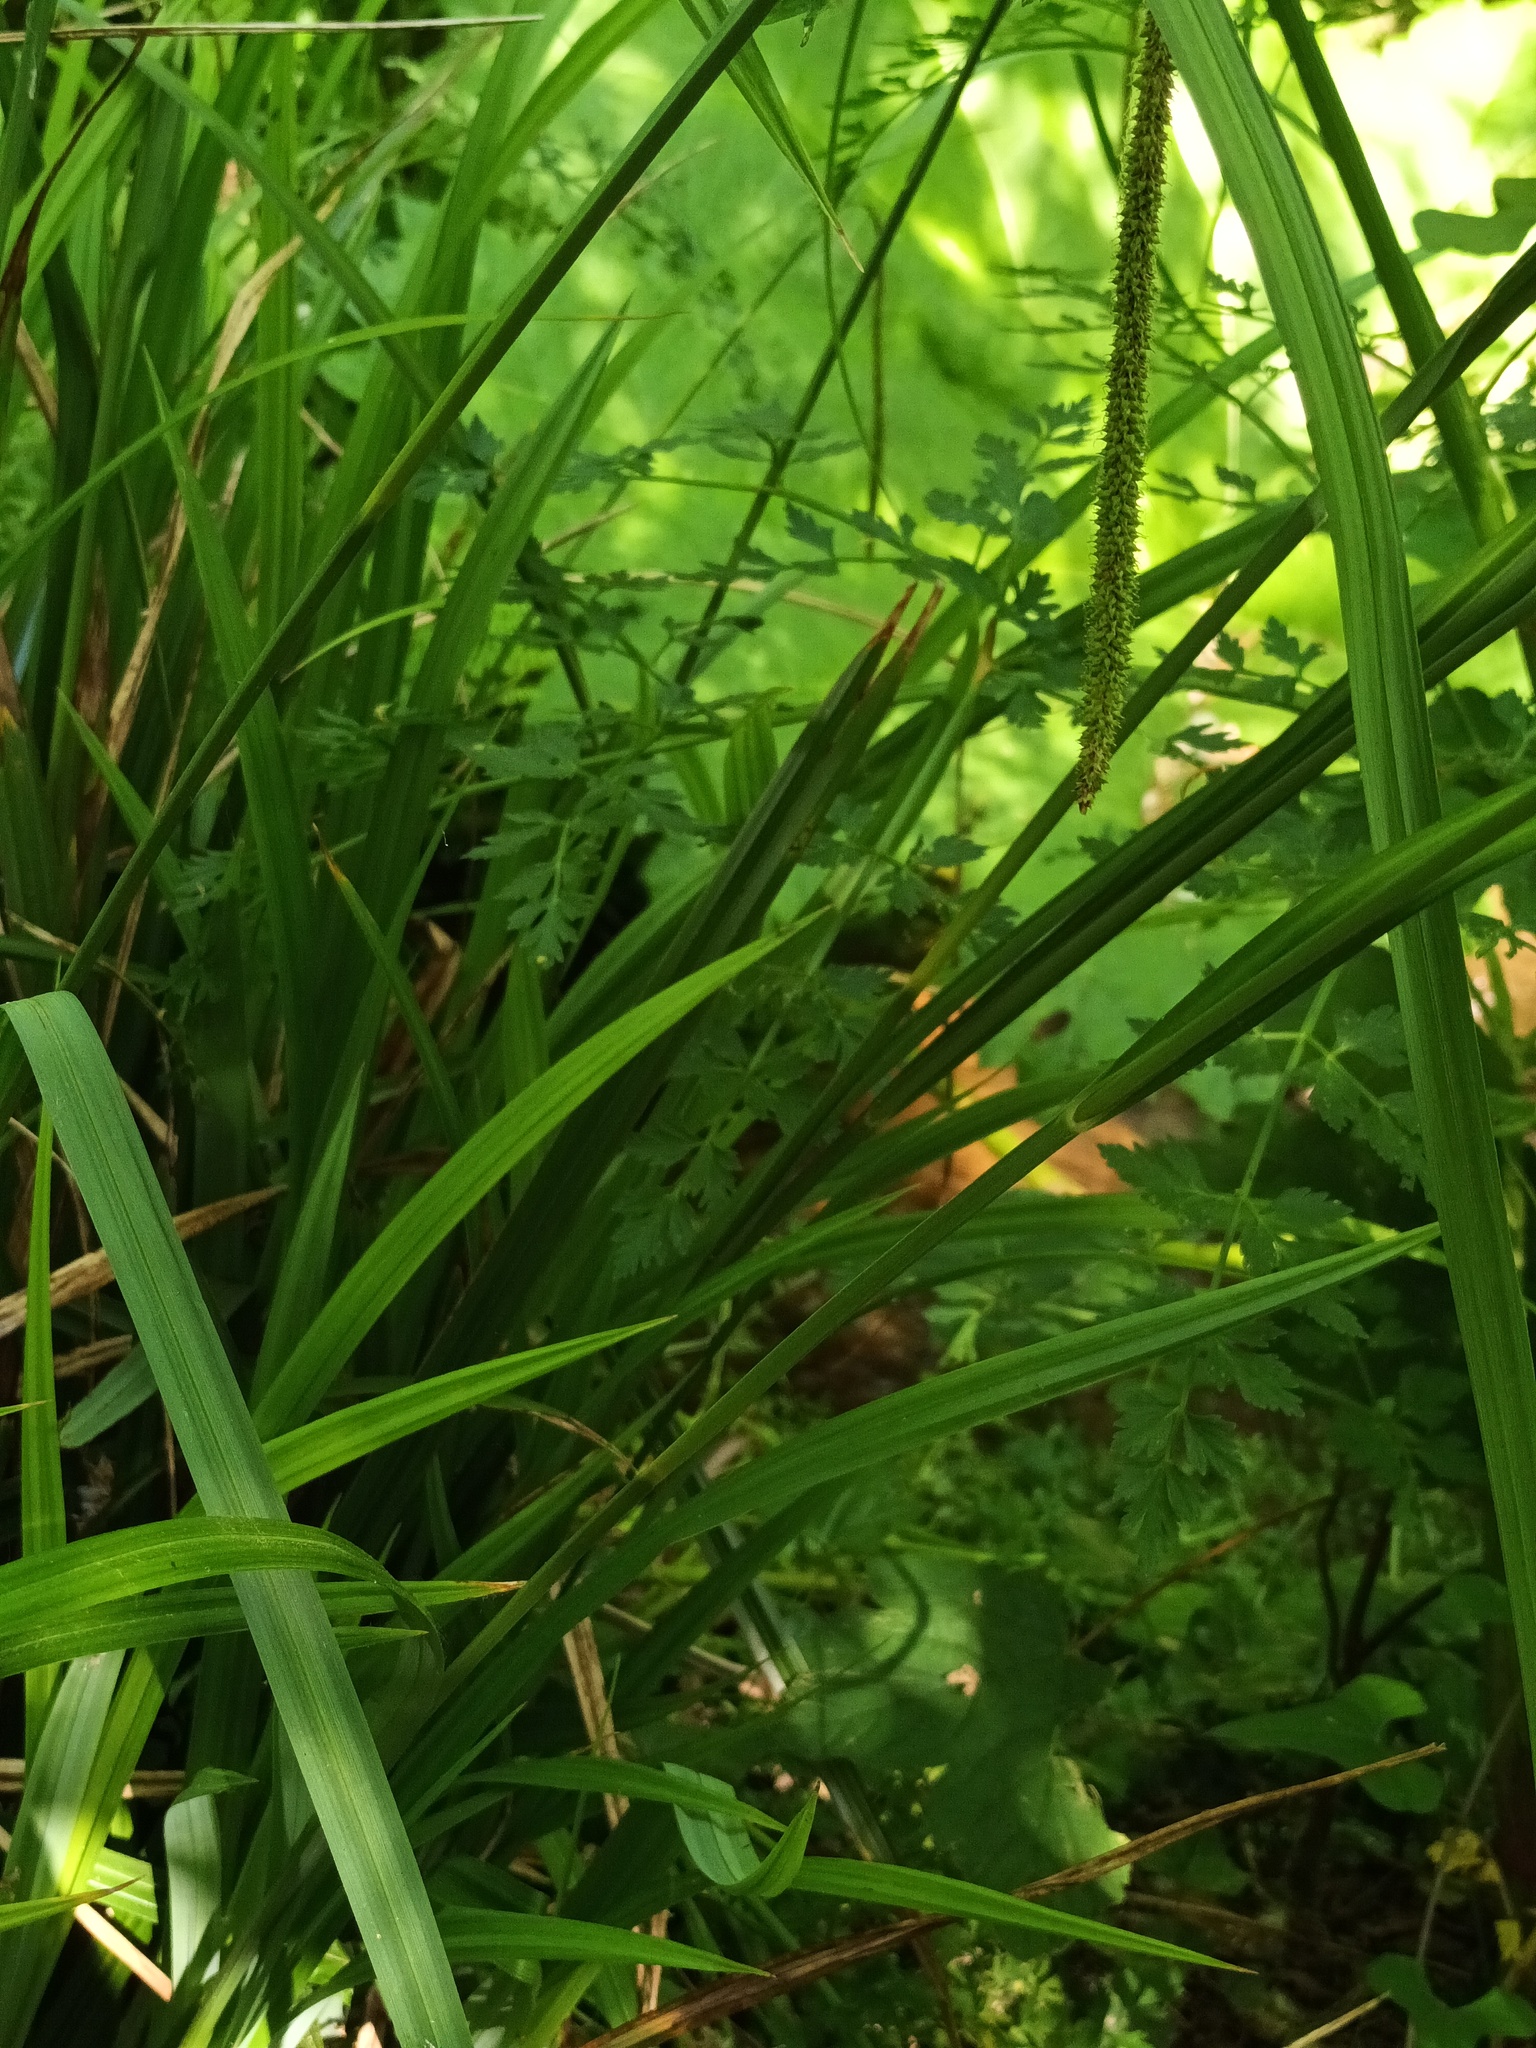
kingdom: Plantae
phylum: Tracheophyta
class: Liliopsida
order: Poales
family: Cyperaceae
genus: Carex
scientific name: Carex pendula
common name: Pendulous sedge
